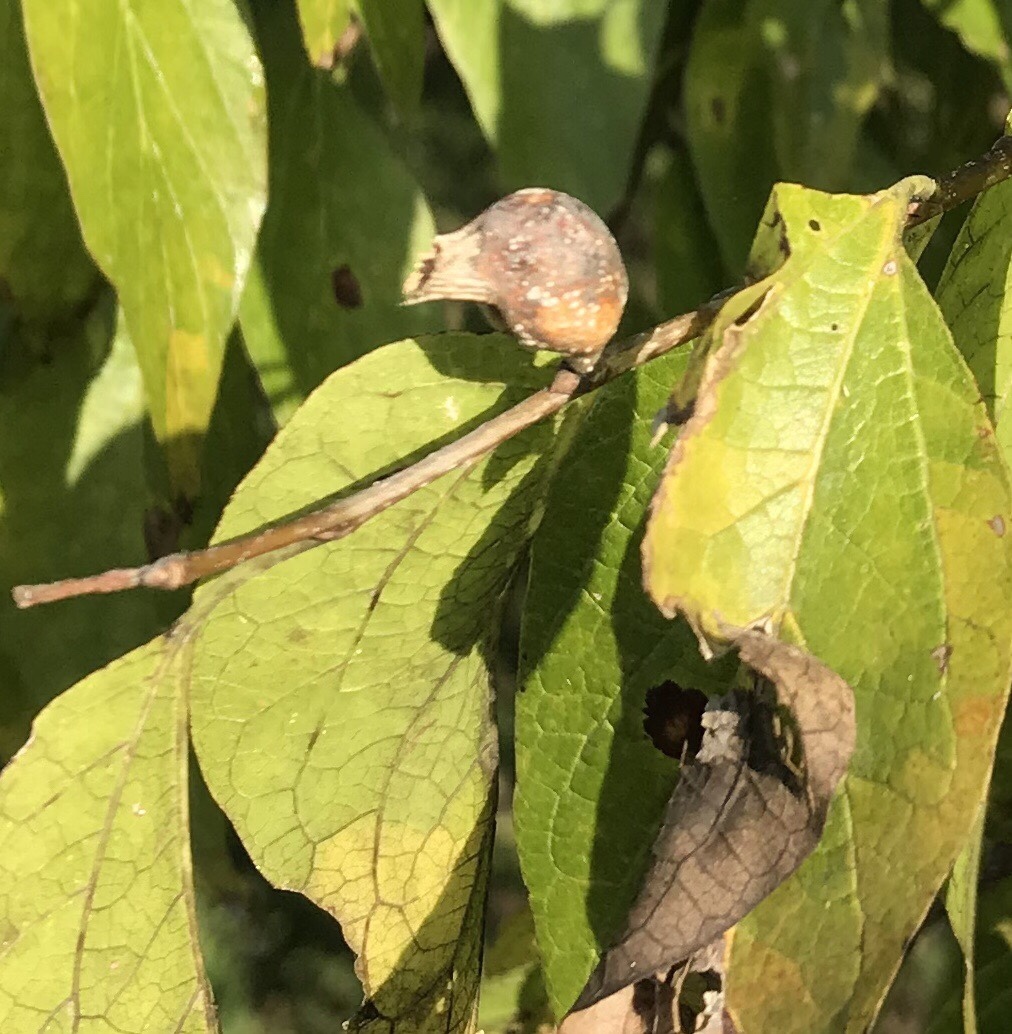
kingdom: Animalia
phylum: Arthropoda
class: Insecta
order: Hemiptera
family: Aphalaridae
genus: Pachypsylla
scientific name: Pachypsylla venusta
